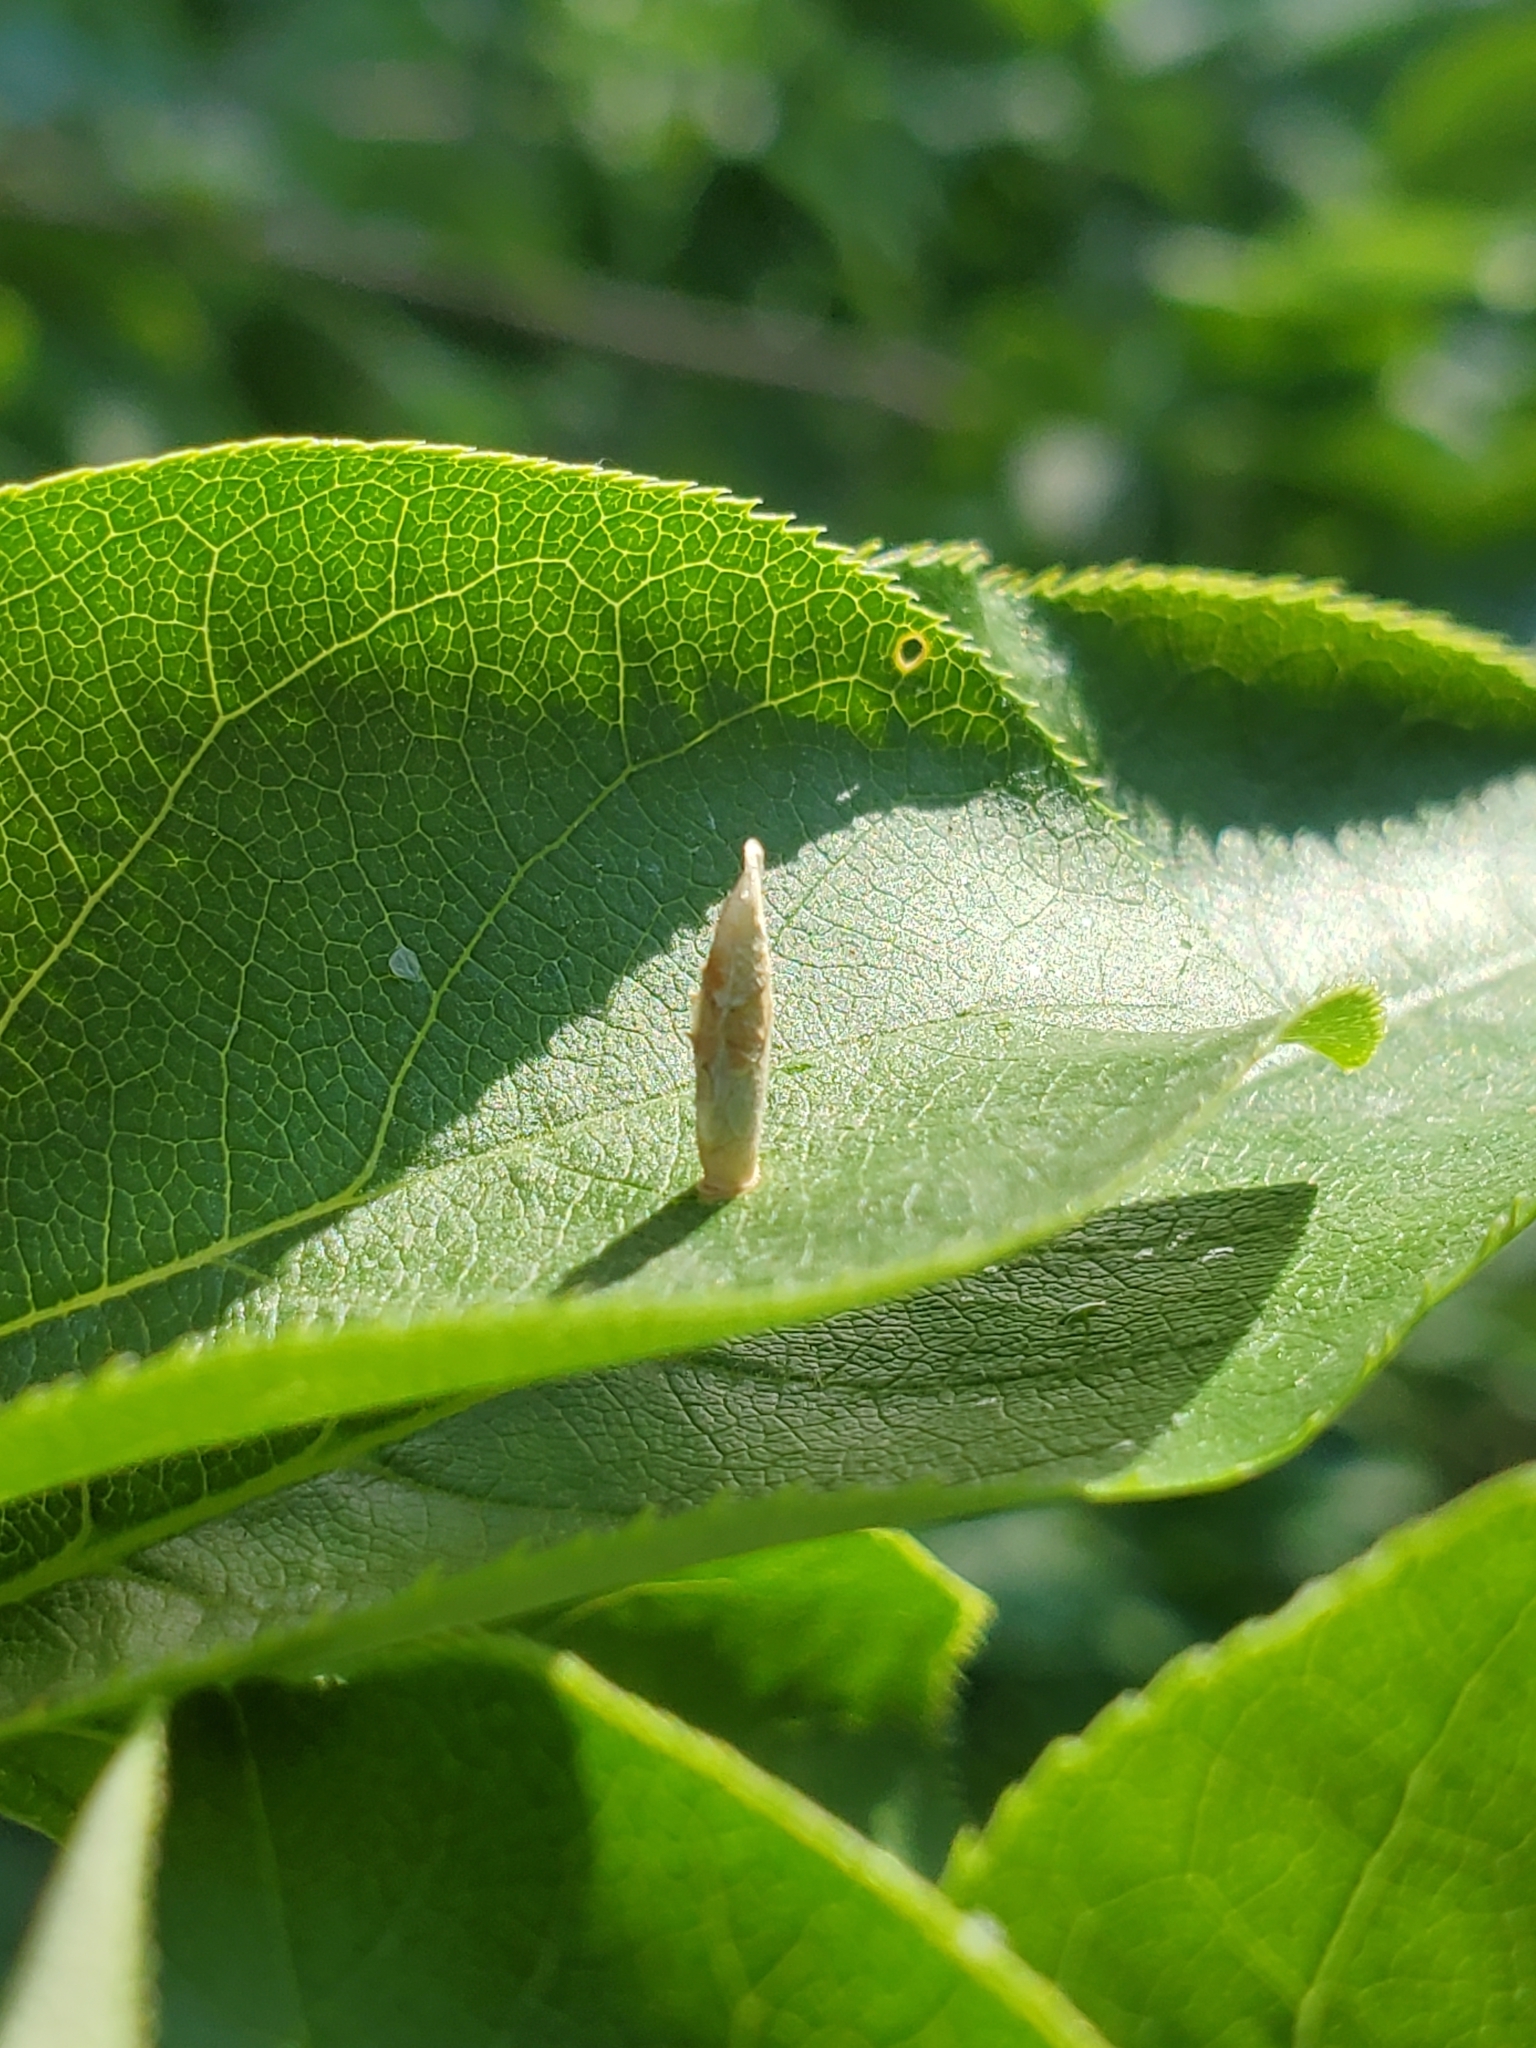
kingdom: Animalia
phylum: Arthropoda
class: Insecta
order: Lepidoptera
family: Coleophoridae
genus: Coleophora
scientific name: Coleophora pruniella
